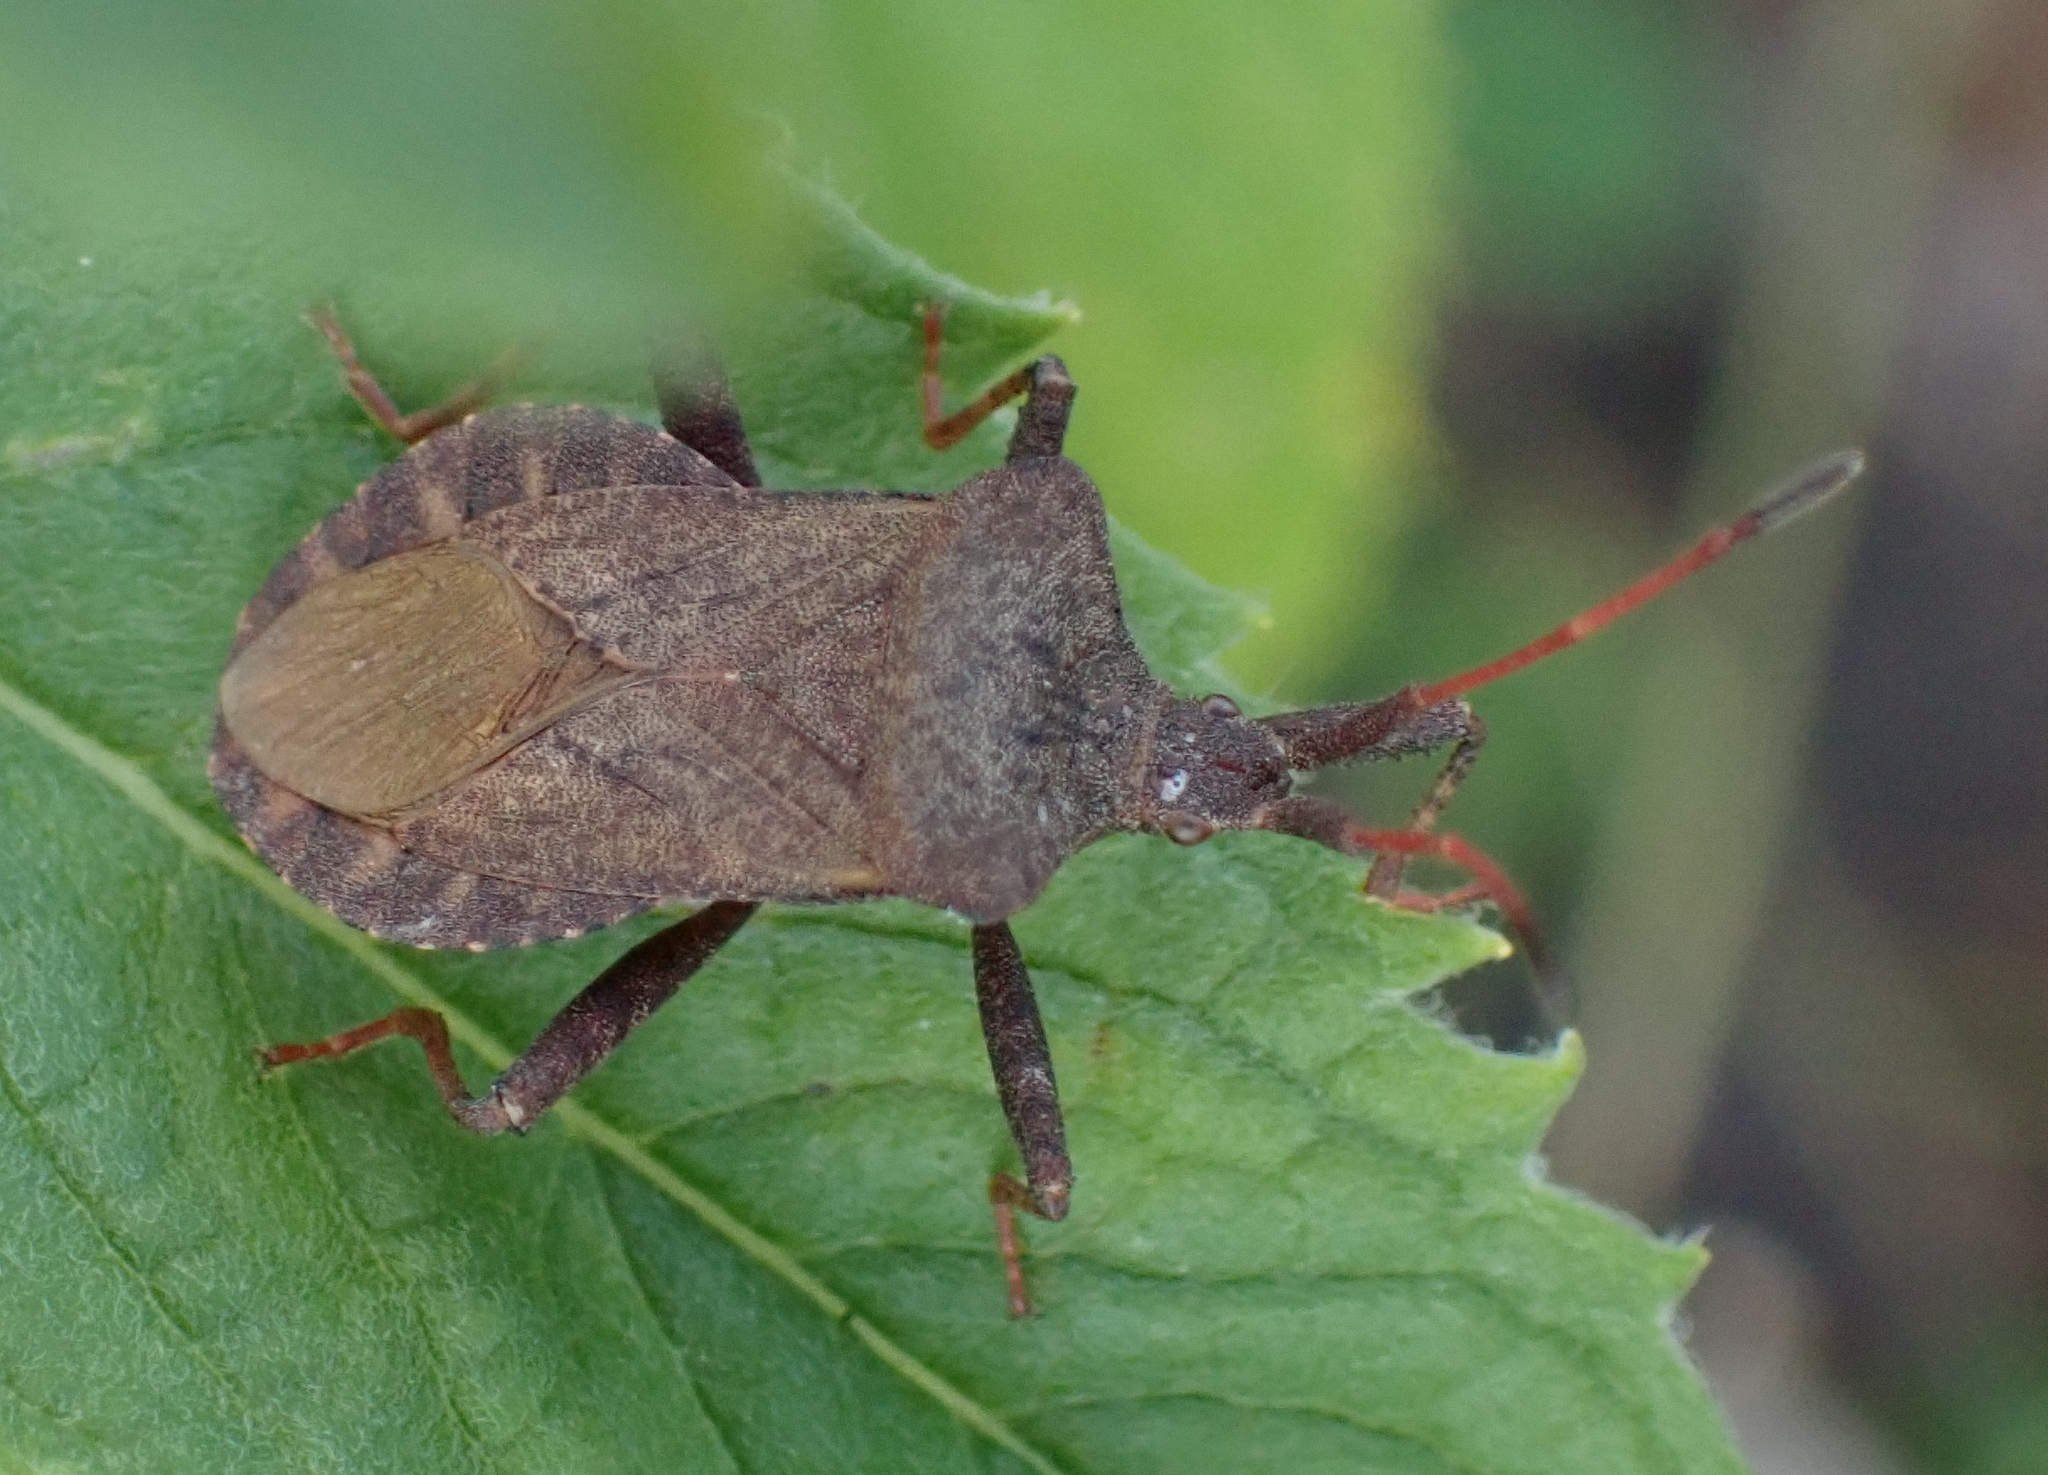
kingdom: Animalia
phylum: Arthropoda
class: Insecta
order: Hemiptera
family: Coreidae
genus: Coreus
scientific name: Coreus marginatus
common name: Dock bug
